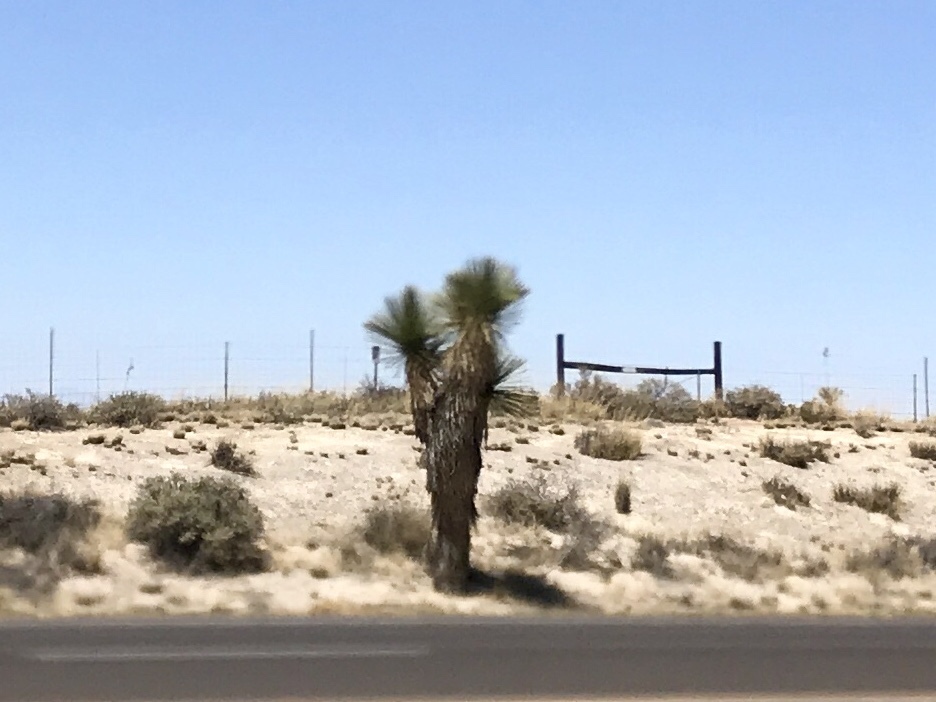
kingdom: Plantae
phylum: Tracheophyta
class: Liliopsida
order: Asparagales
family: Asparagaceae
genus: Yucca
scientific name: Yucca elata
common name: Palmella
